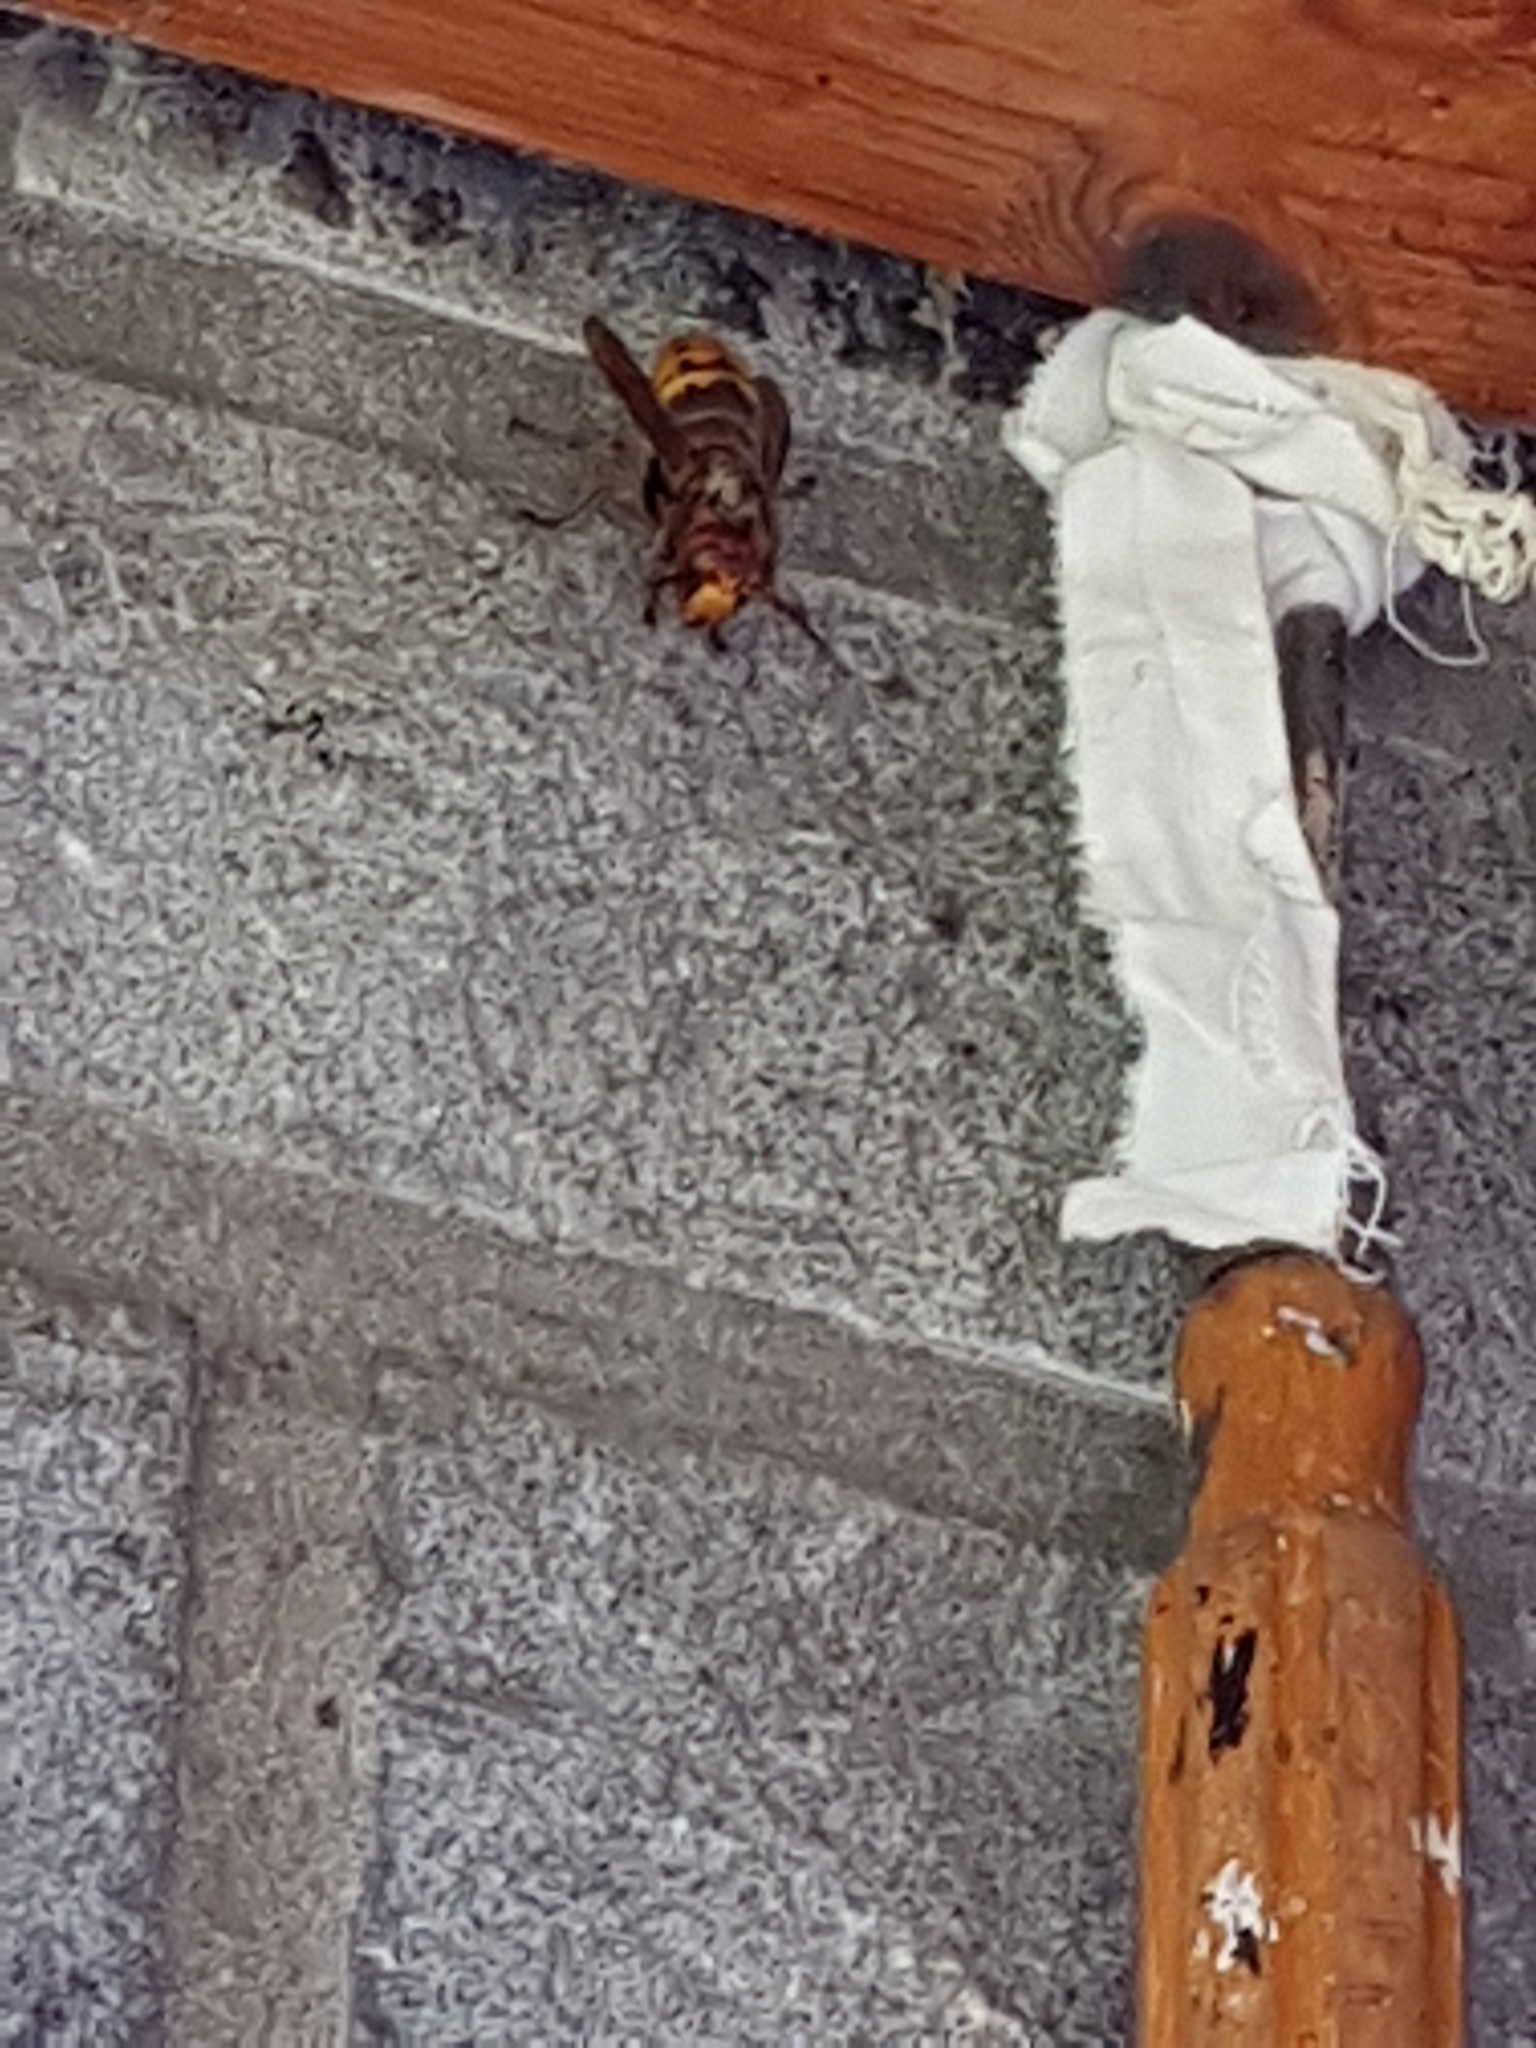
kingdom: Animalia
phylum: Arthropoda
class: Insecta
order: Hymenoptera
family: Vespidae
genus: Vespa
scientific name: Vespa crabro
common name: Hornet
